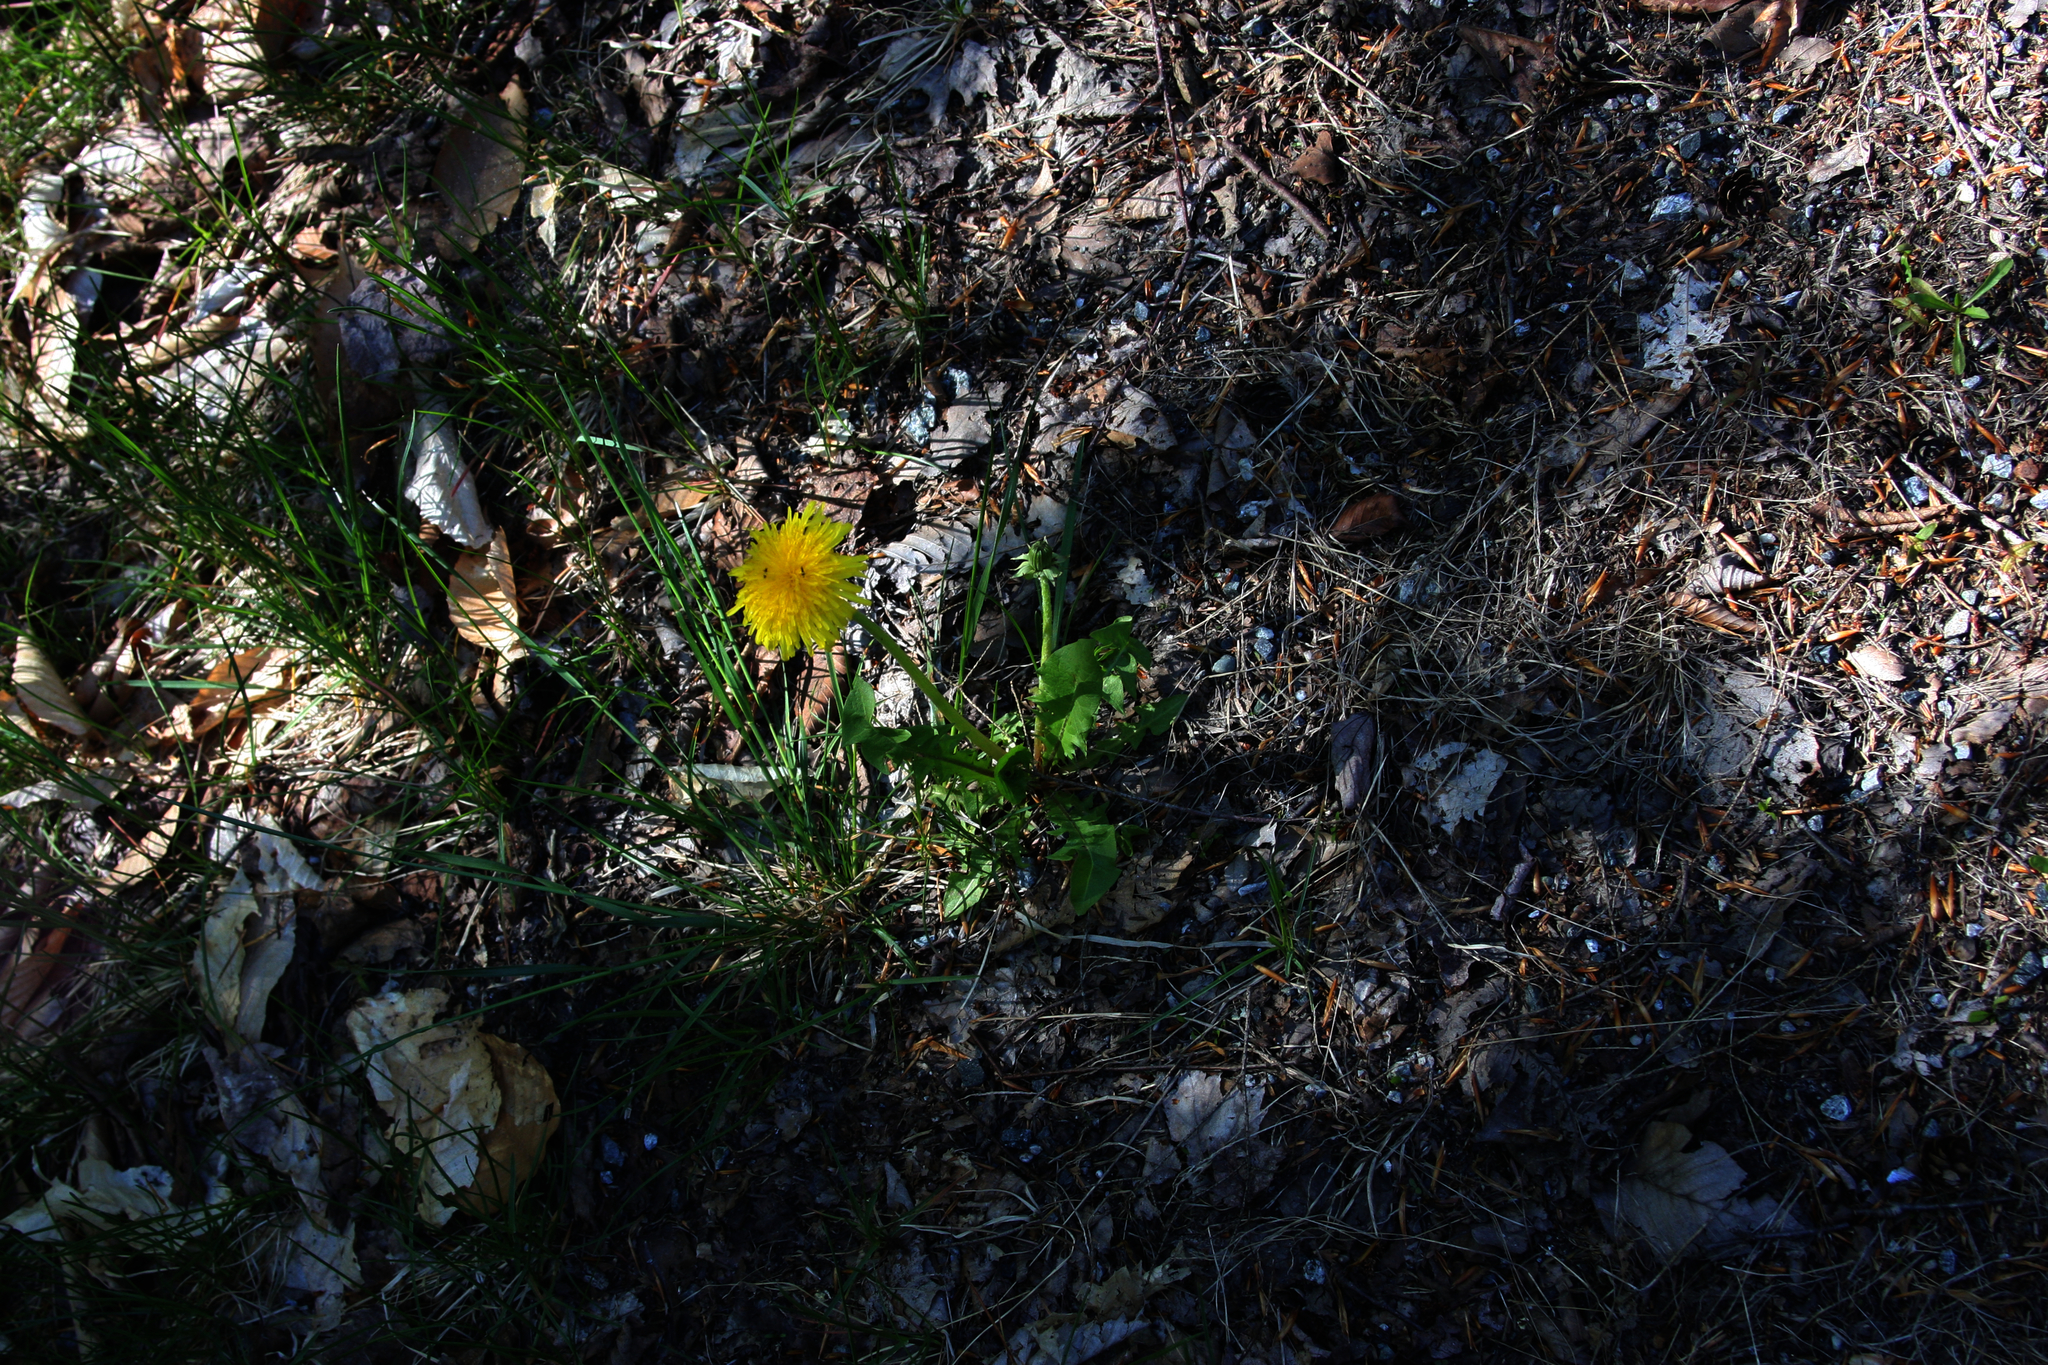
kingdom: Plantae
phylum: Tracheophyta
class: Magnoliopsida
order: Asterales
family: Asteraceae
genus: Taraxacum
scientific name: Taraxacum officinale
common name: Common dandelion
